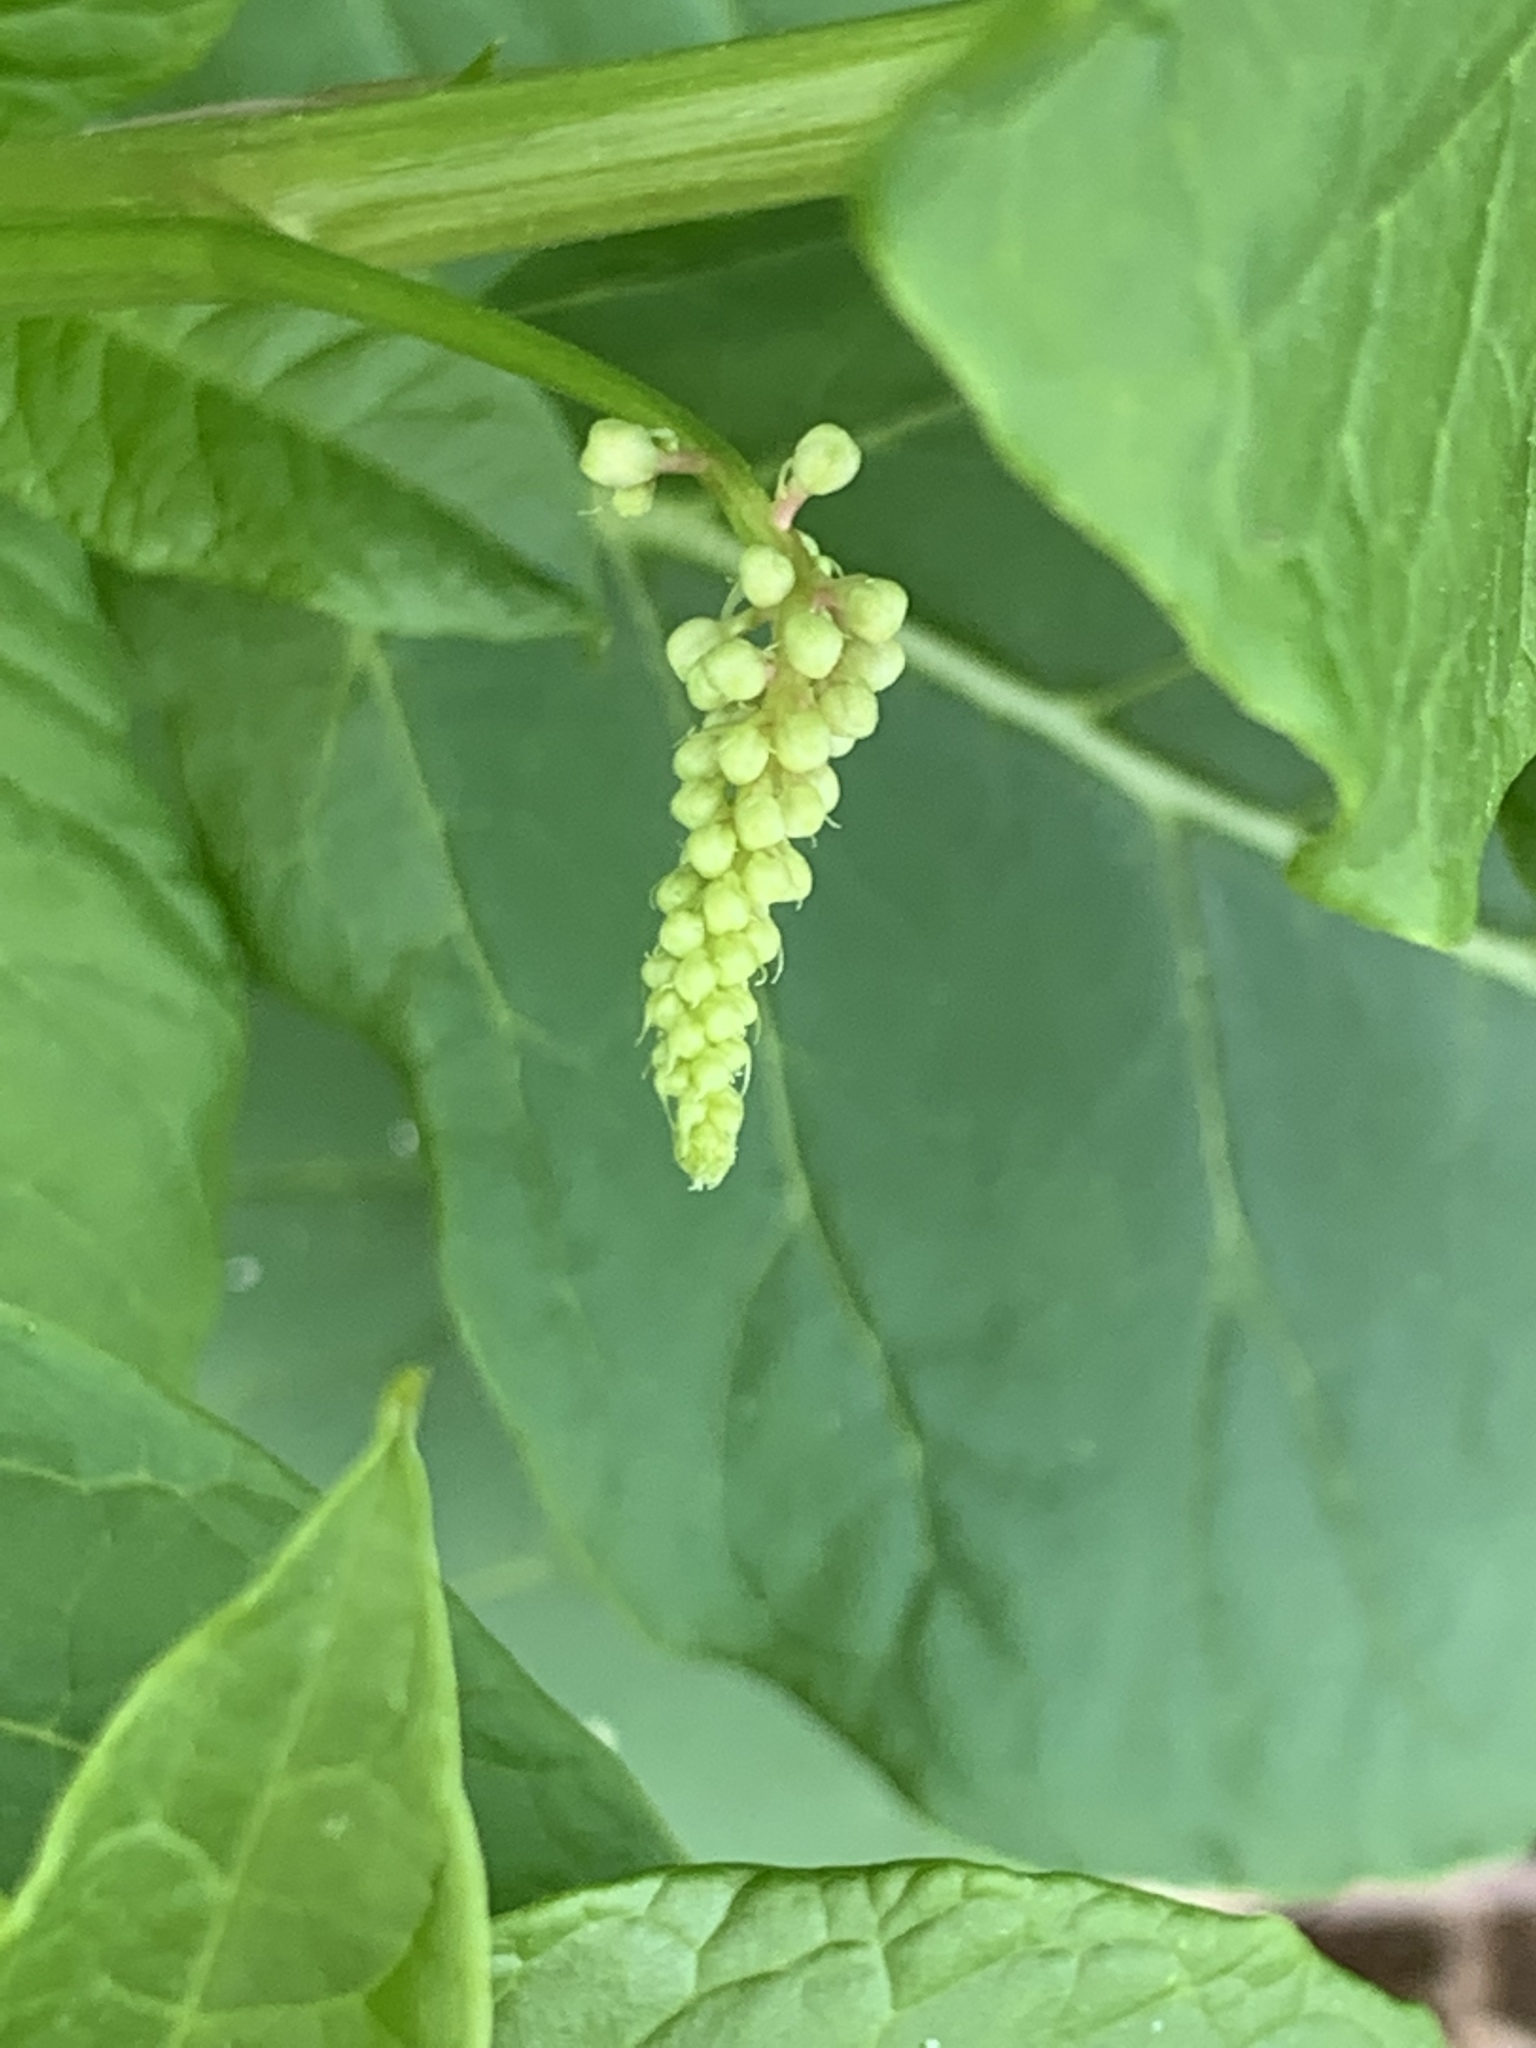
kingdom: Plantae
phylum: Tracheophyta
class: Magnoliopsida
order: Caryophyllales
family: Phytolaccaceae
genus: Phytolacca
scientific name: Phytolacca americana
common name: American pokeweed
